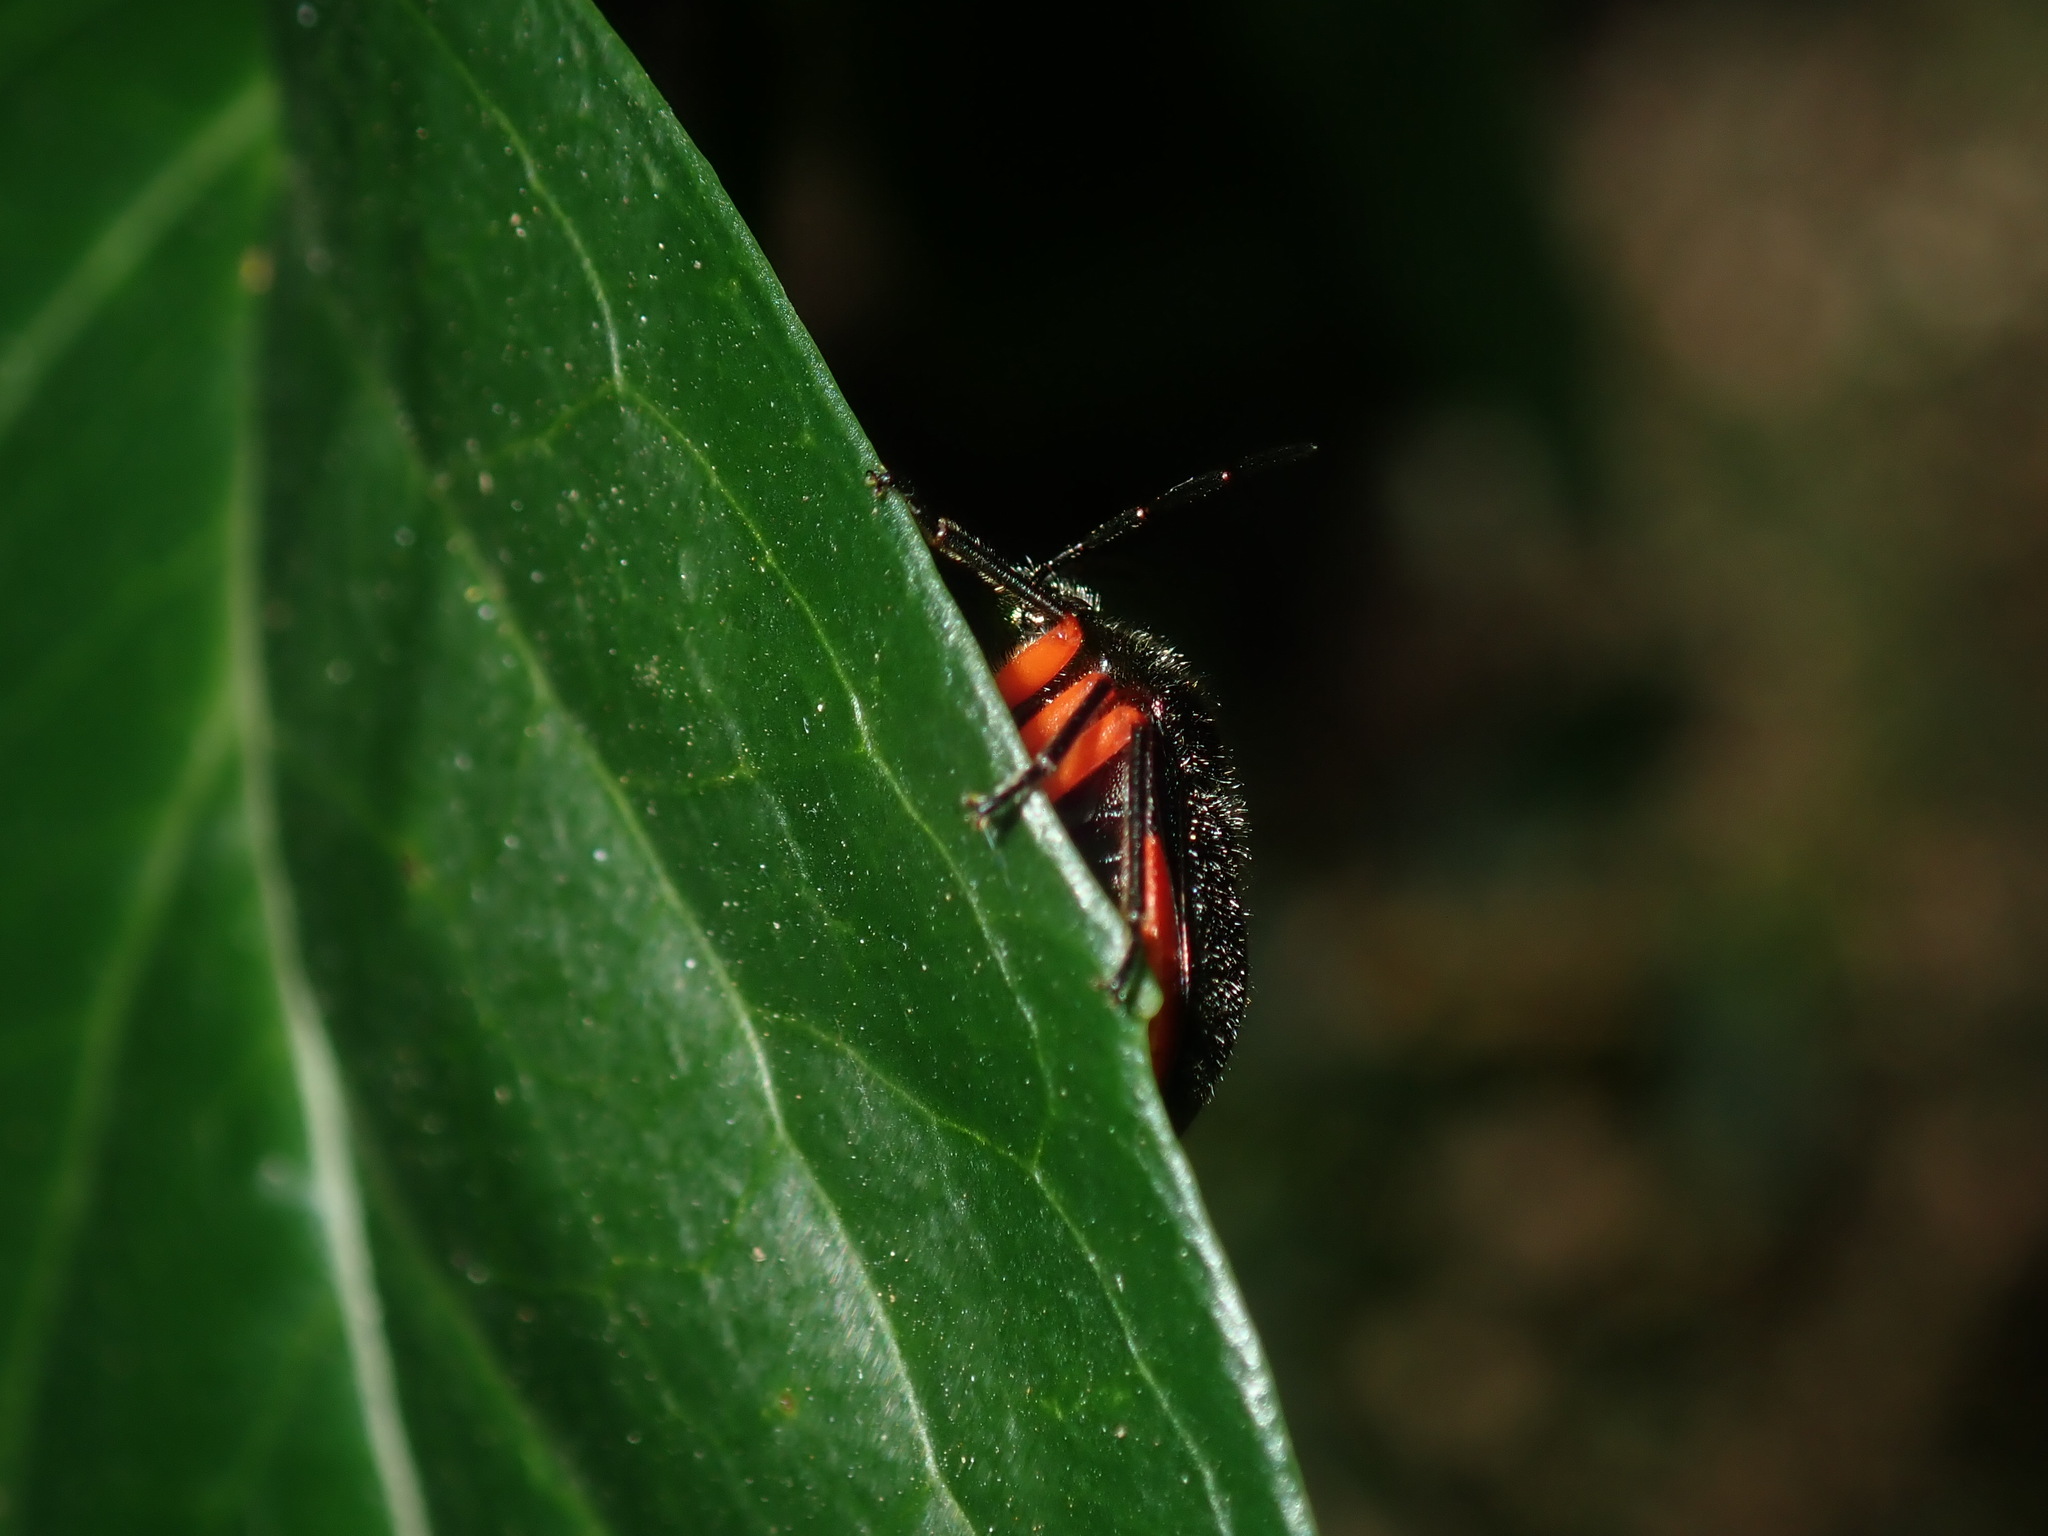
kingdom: Animalia
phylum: Arthropoda
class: Insecta
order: Hemiptera
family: Scutelleridae
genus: Lampromicra
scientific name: Lampromicra
